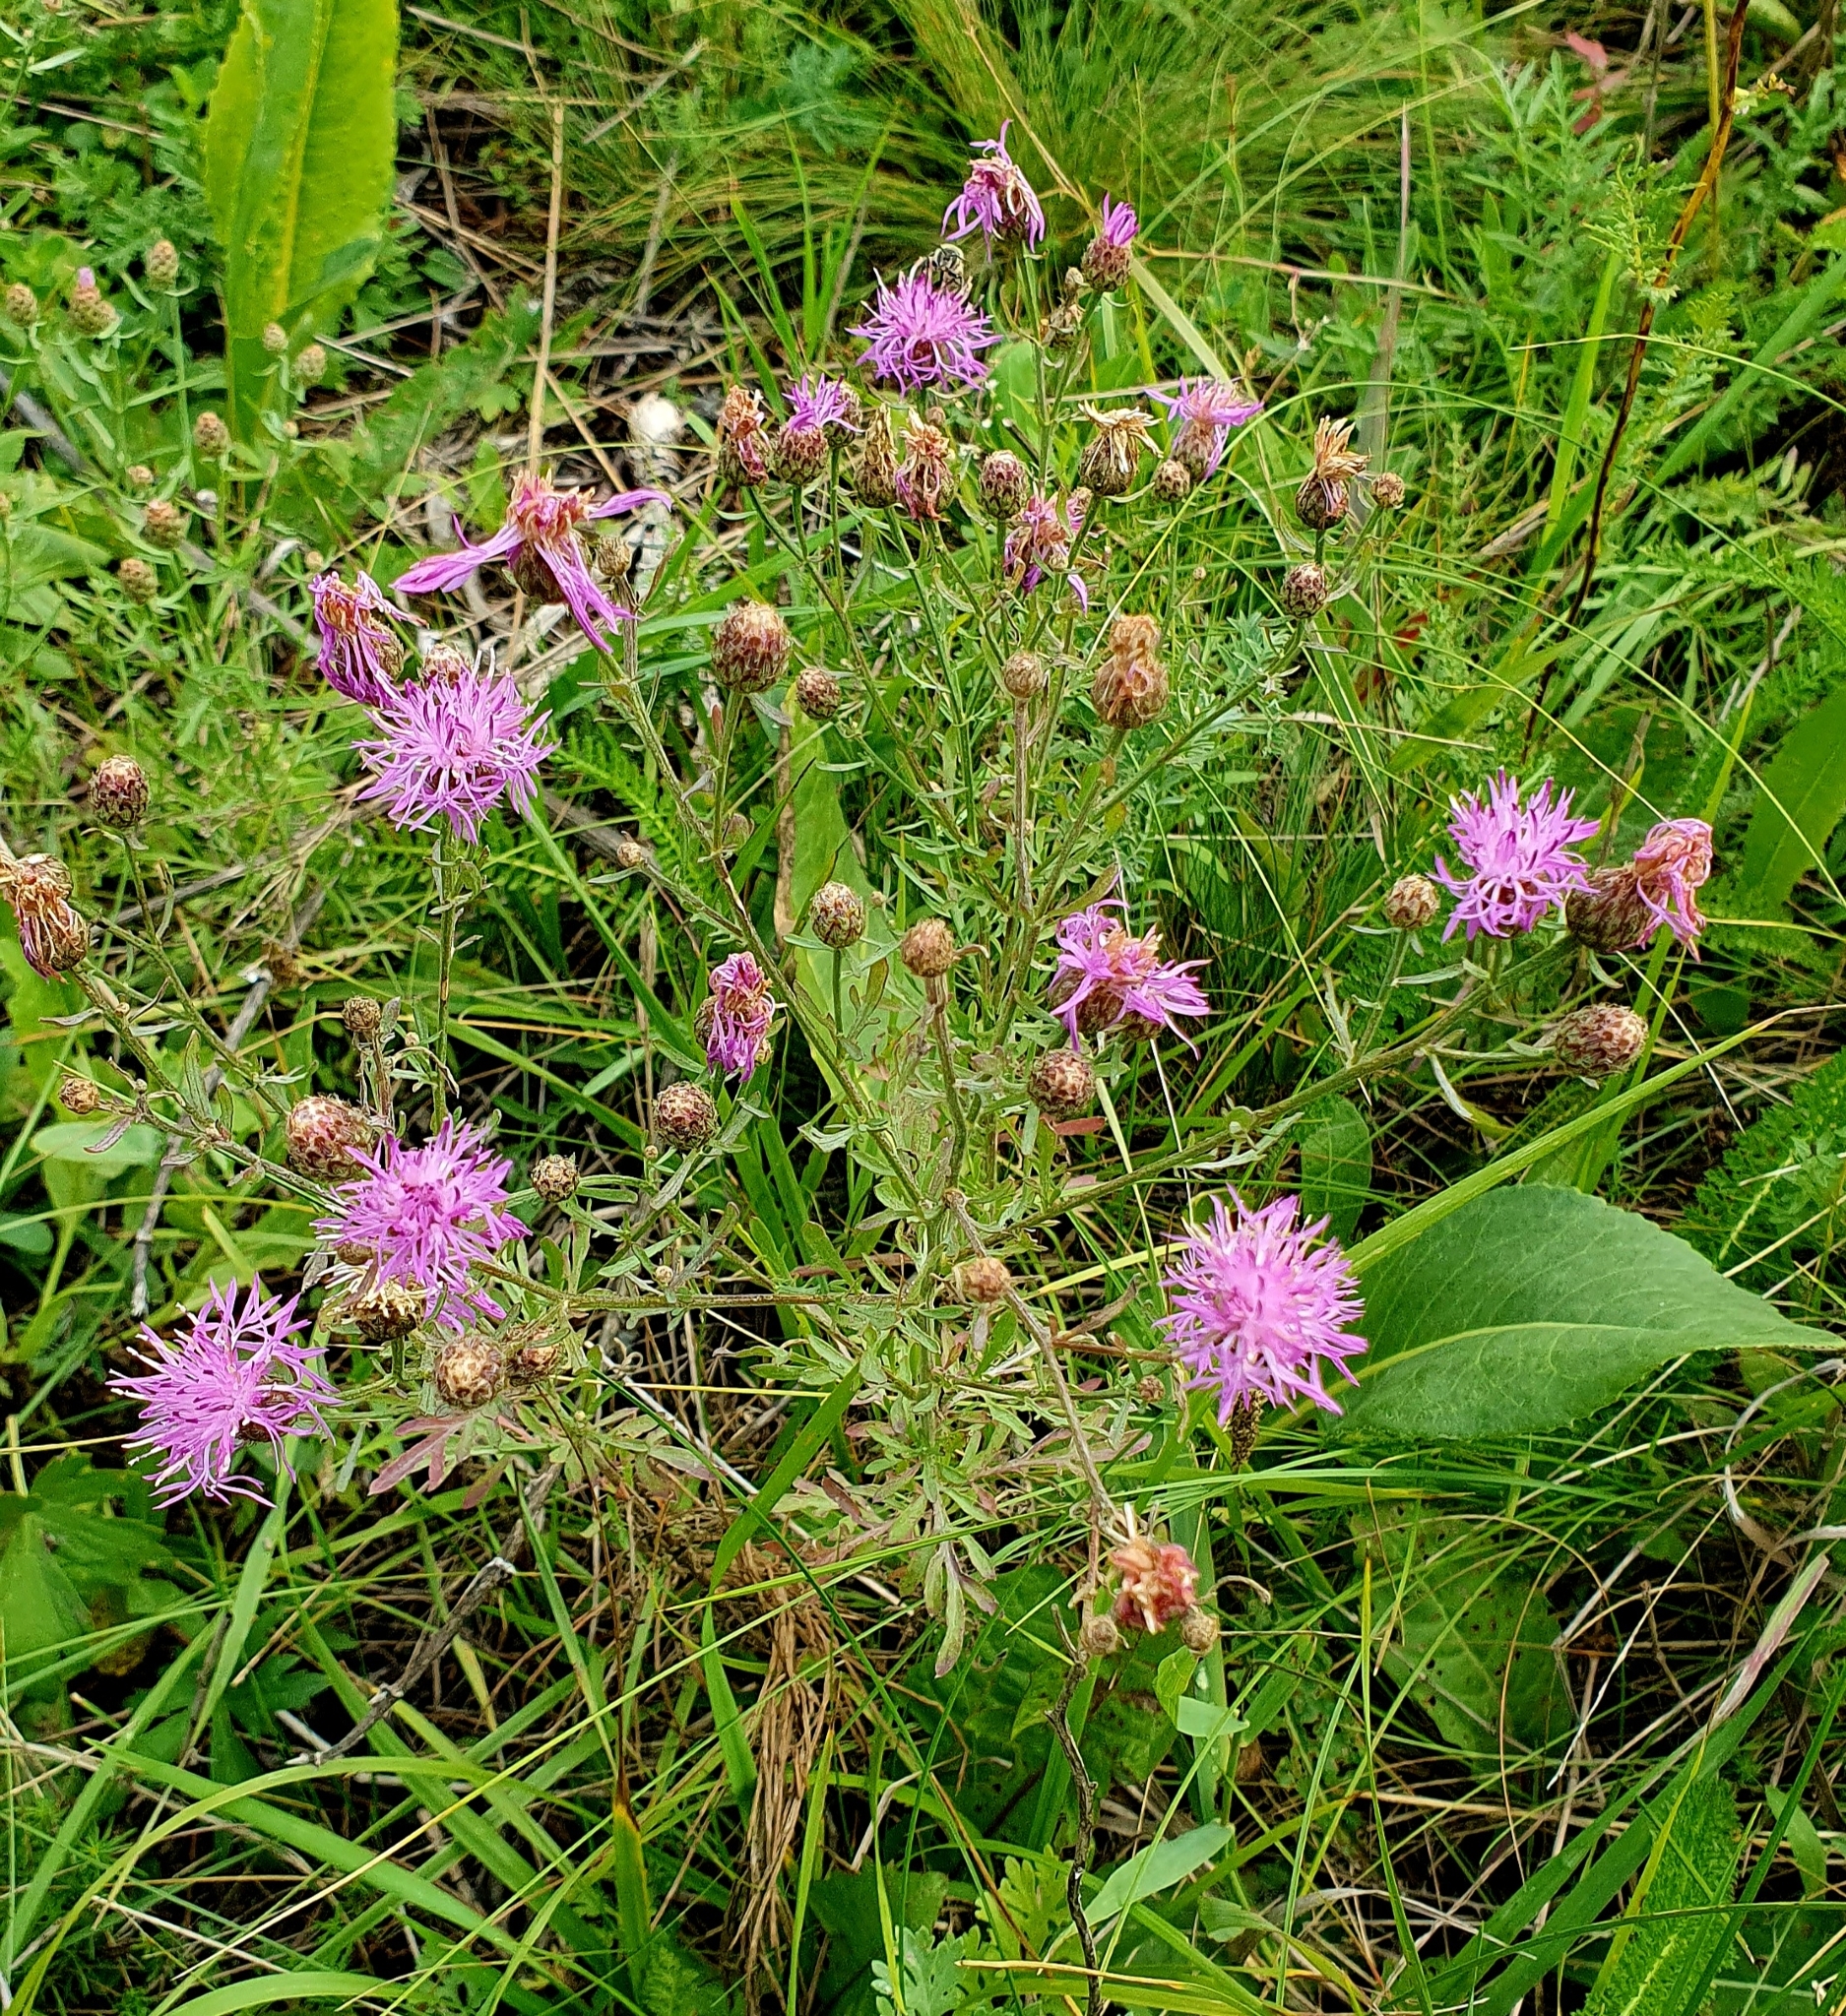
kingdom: Plantae
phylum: Tracheophyta
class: Magnoliopsida
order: Asterales
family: Asteraceae
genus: Centaurea
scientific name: Centaurea stoebe
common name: Spotted knapweed
